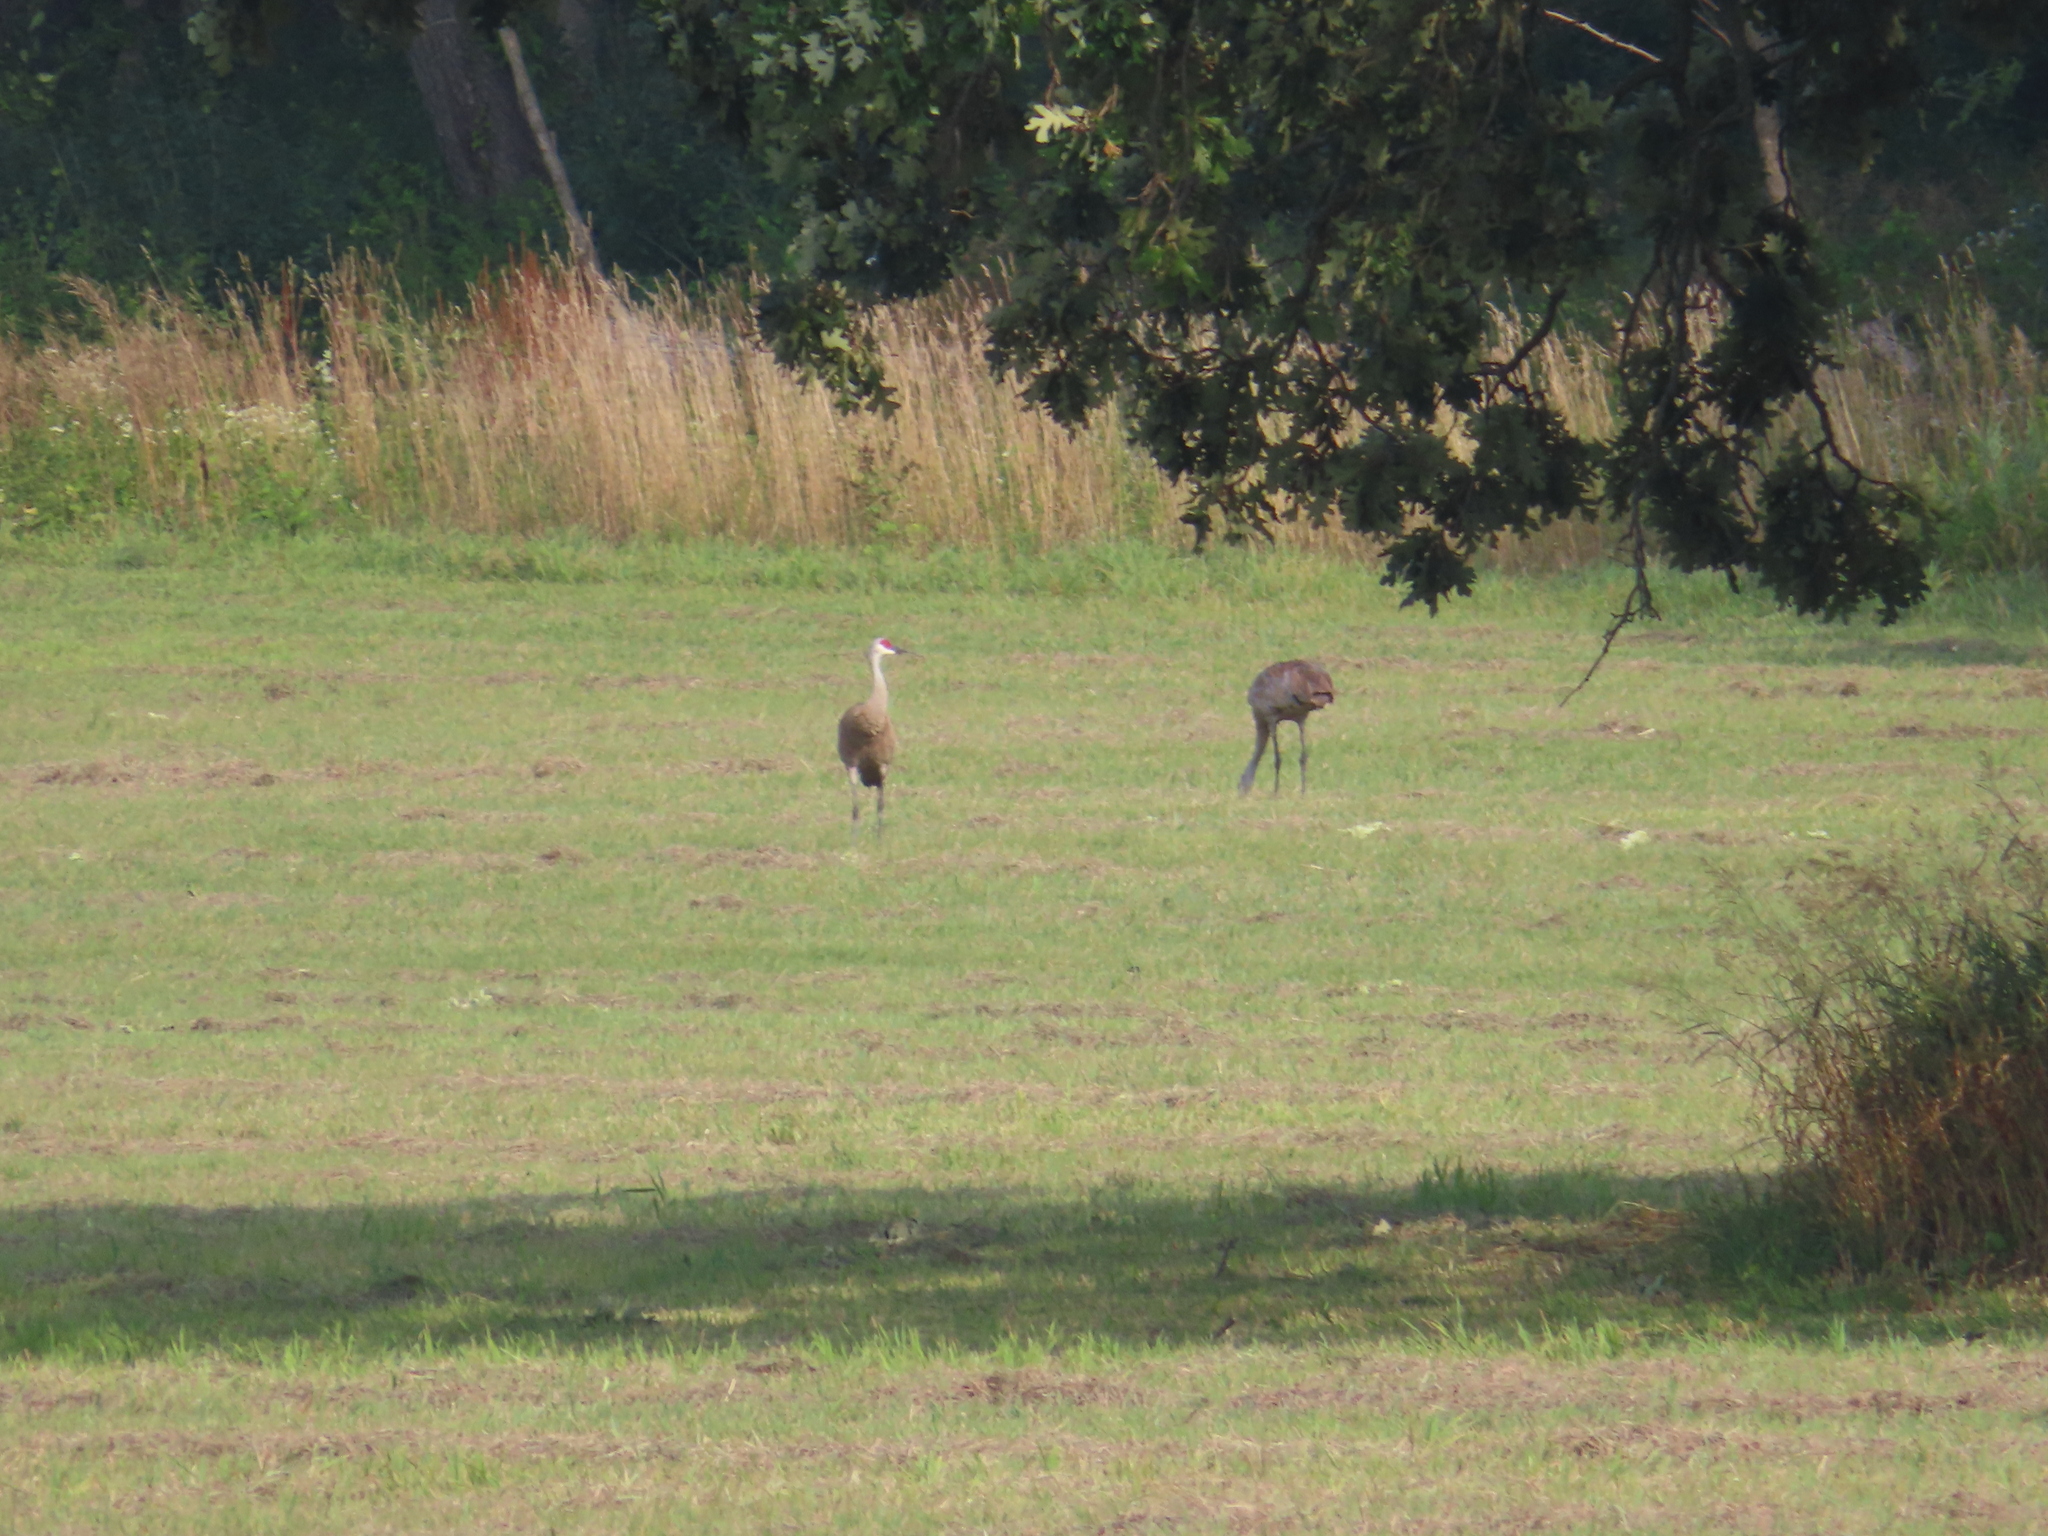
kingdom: Animalia
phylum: Chordata
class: Aves
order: Gruiformes
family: Gruidae
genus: Grus
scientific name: Grus canadensis
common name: Sandhill crane
